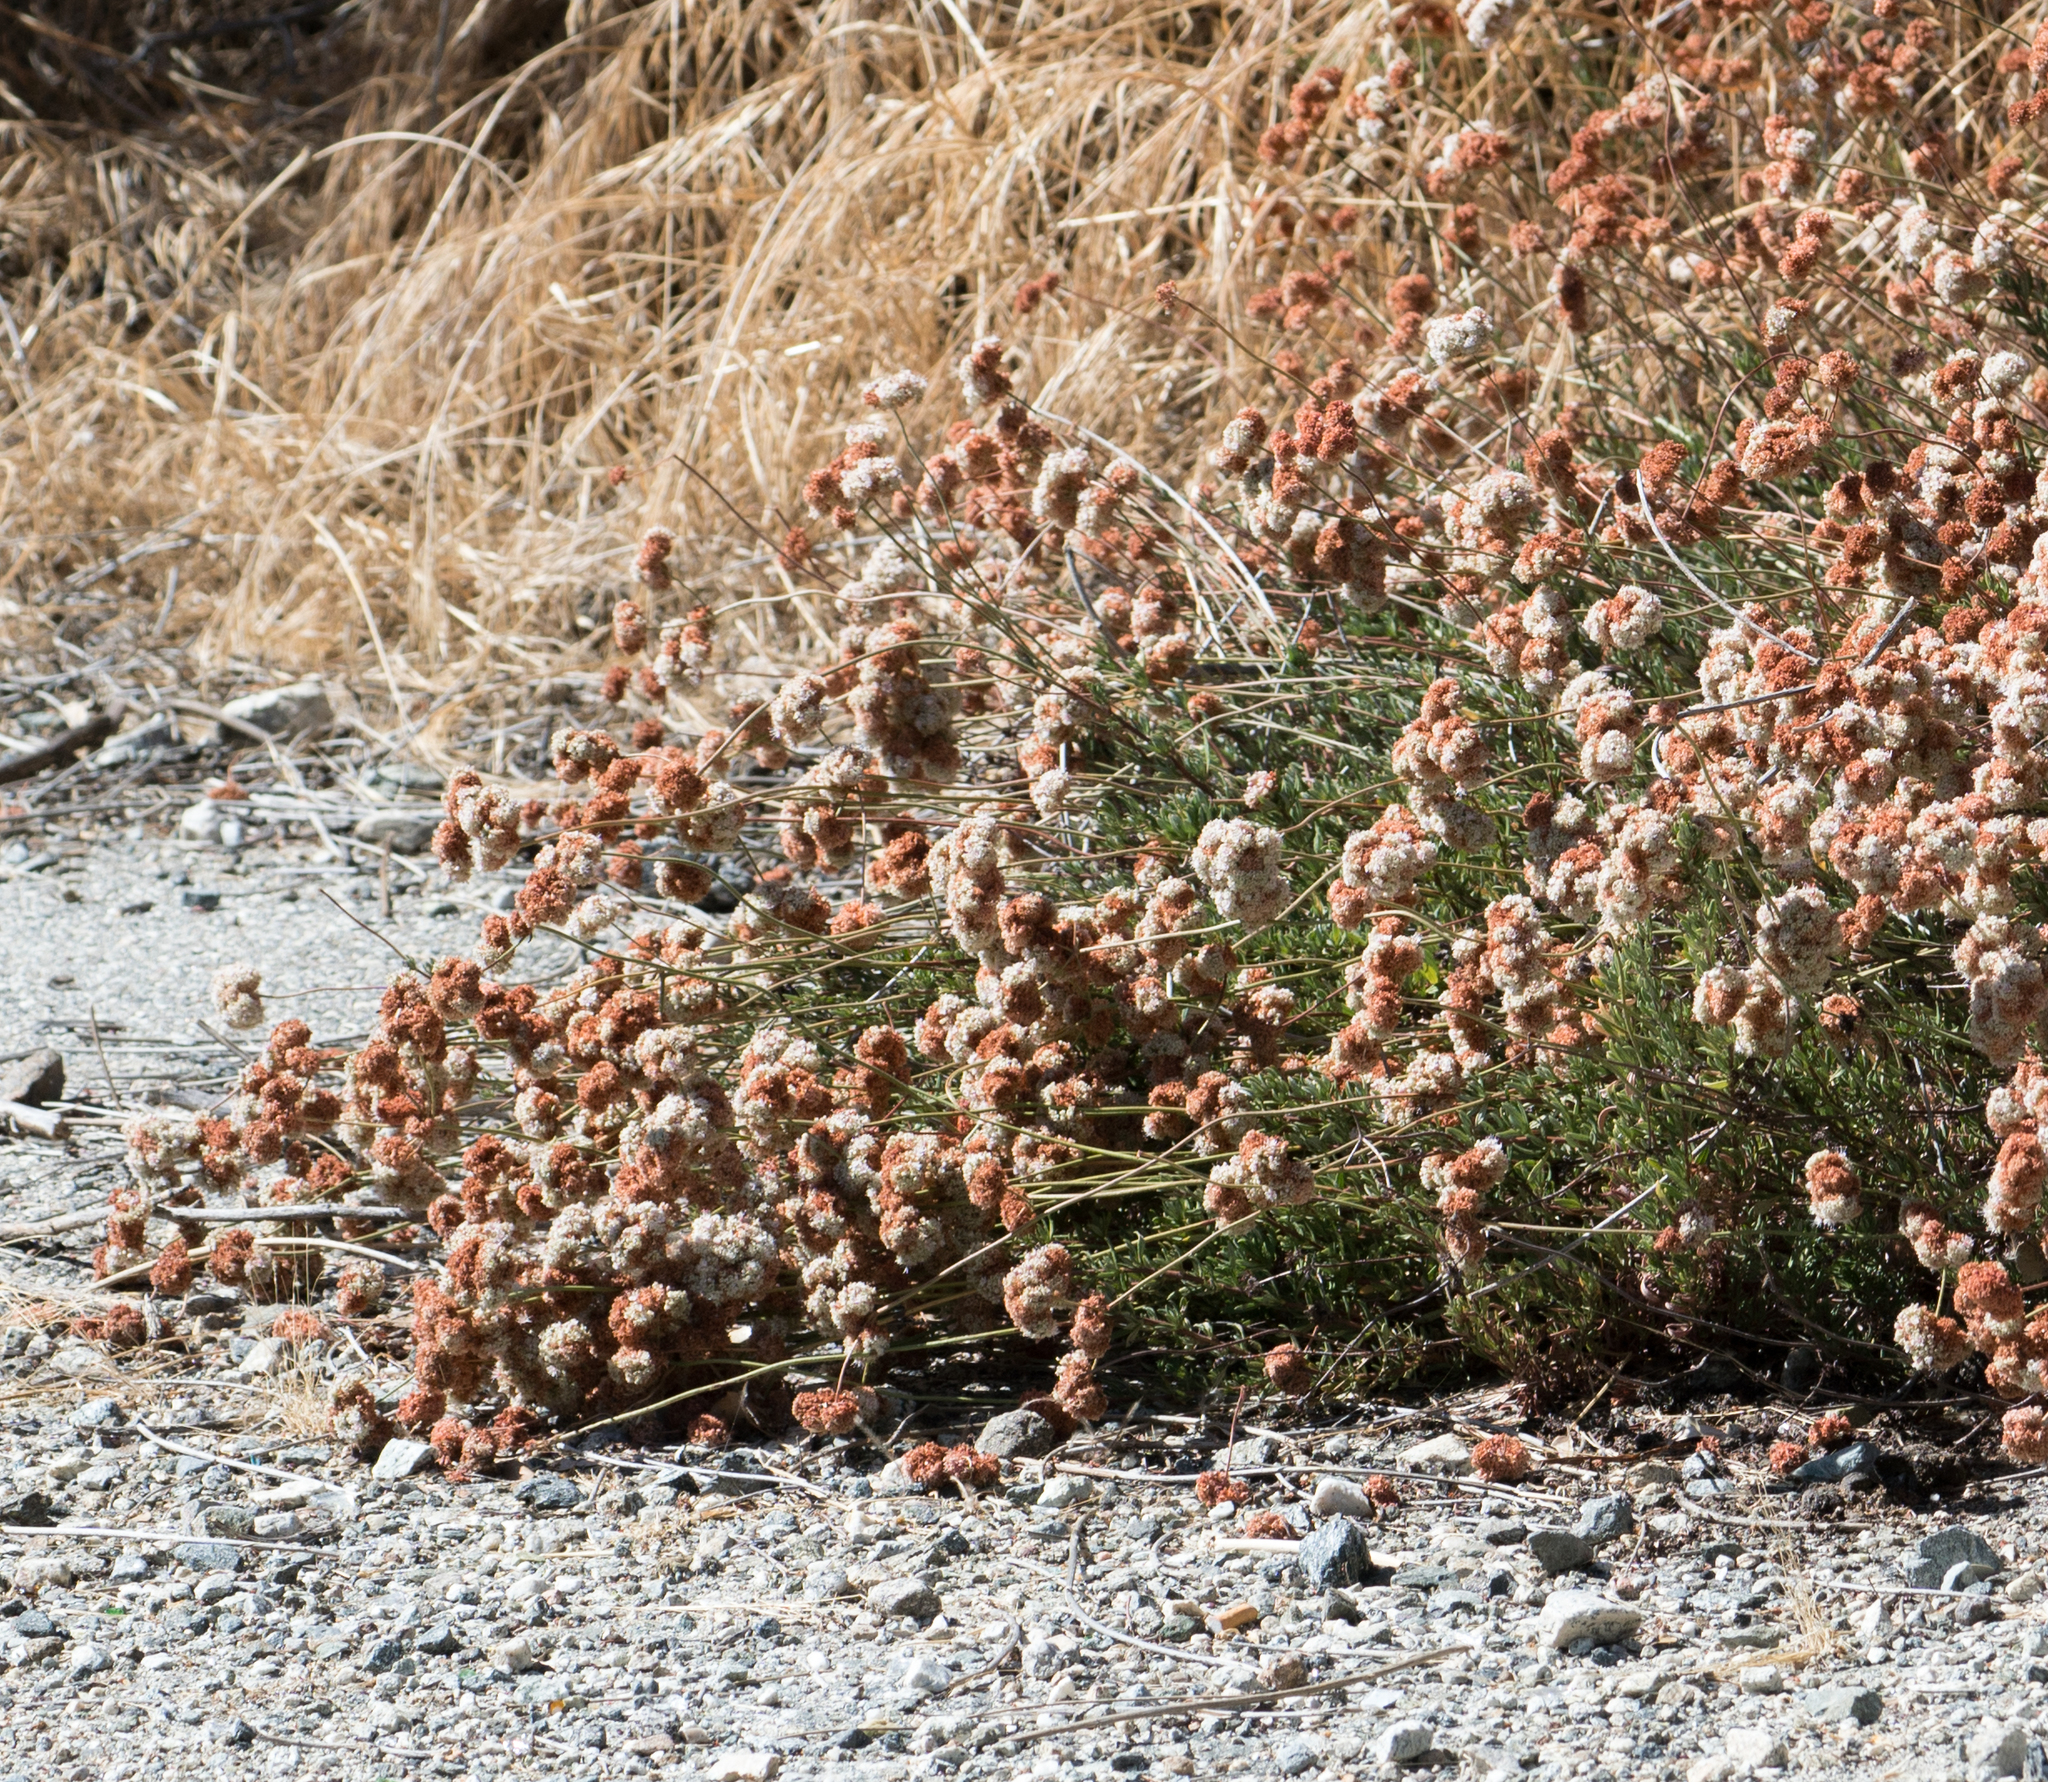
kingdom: Plantae
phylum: Tracheophyta
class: Magnoliopsida
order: Caryophyllales
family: Polygonaceae
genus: Eriogonum
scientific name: Eriogonum fasciculatum
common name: California wild buckwheat
